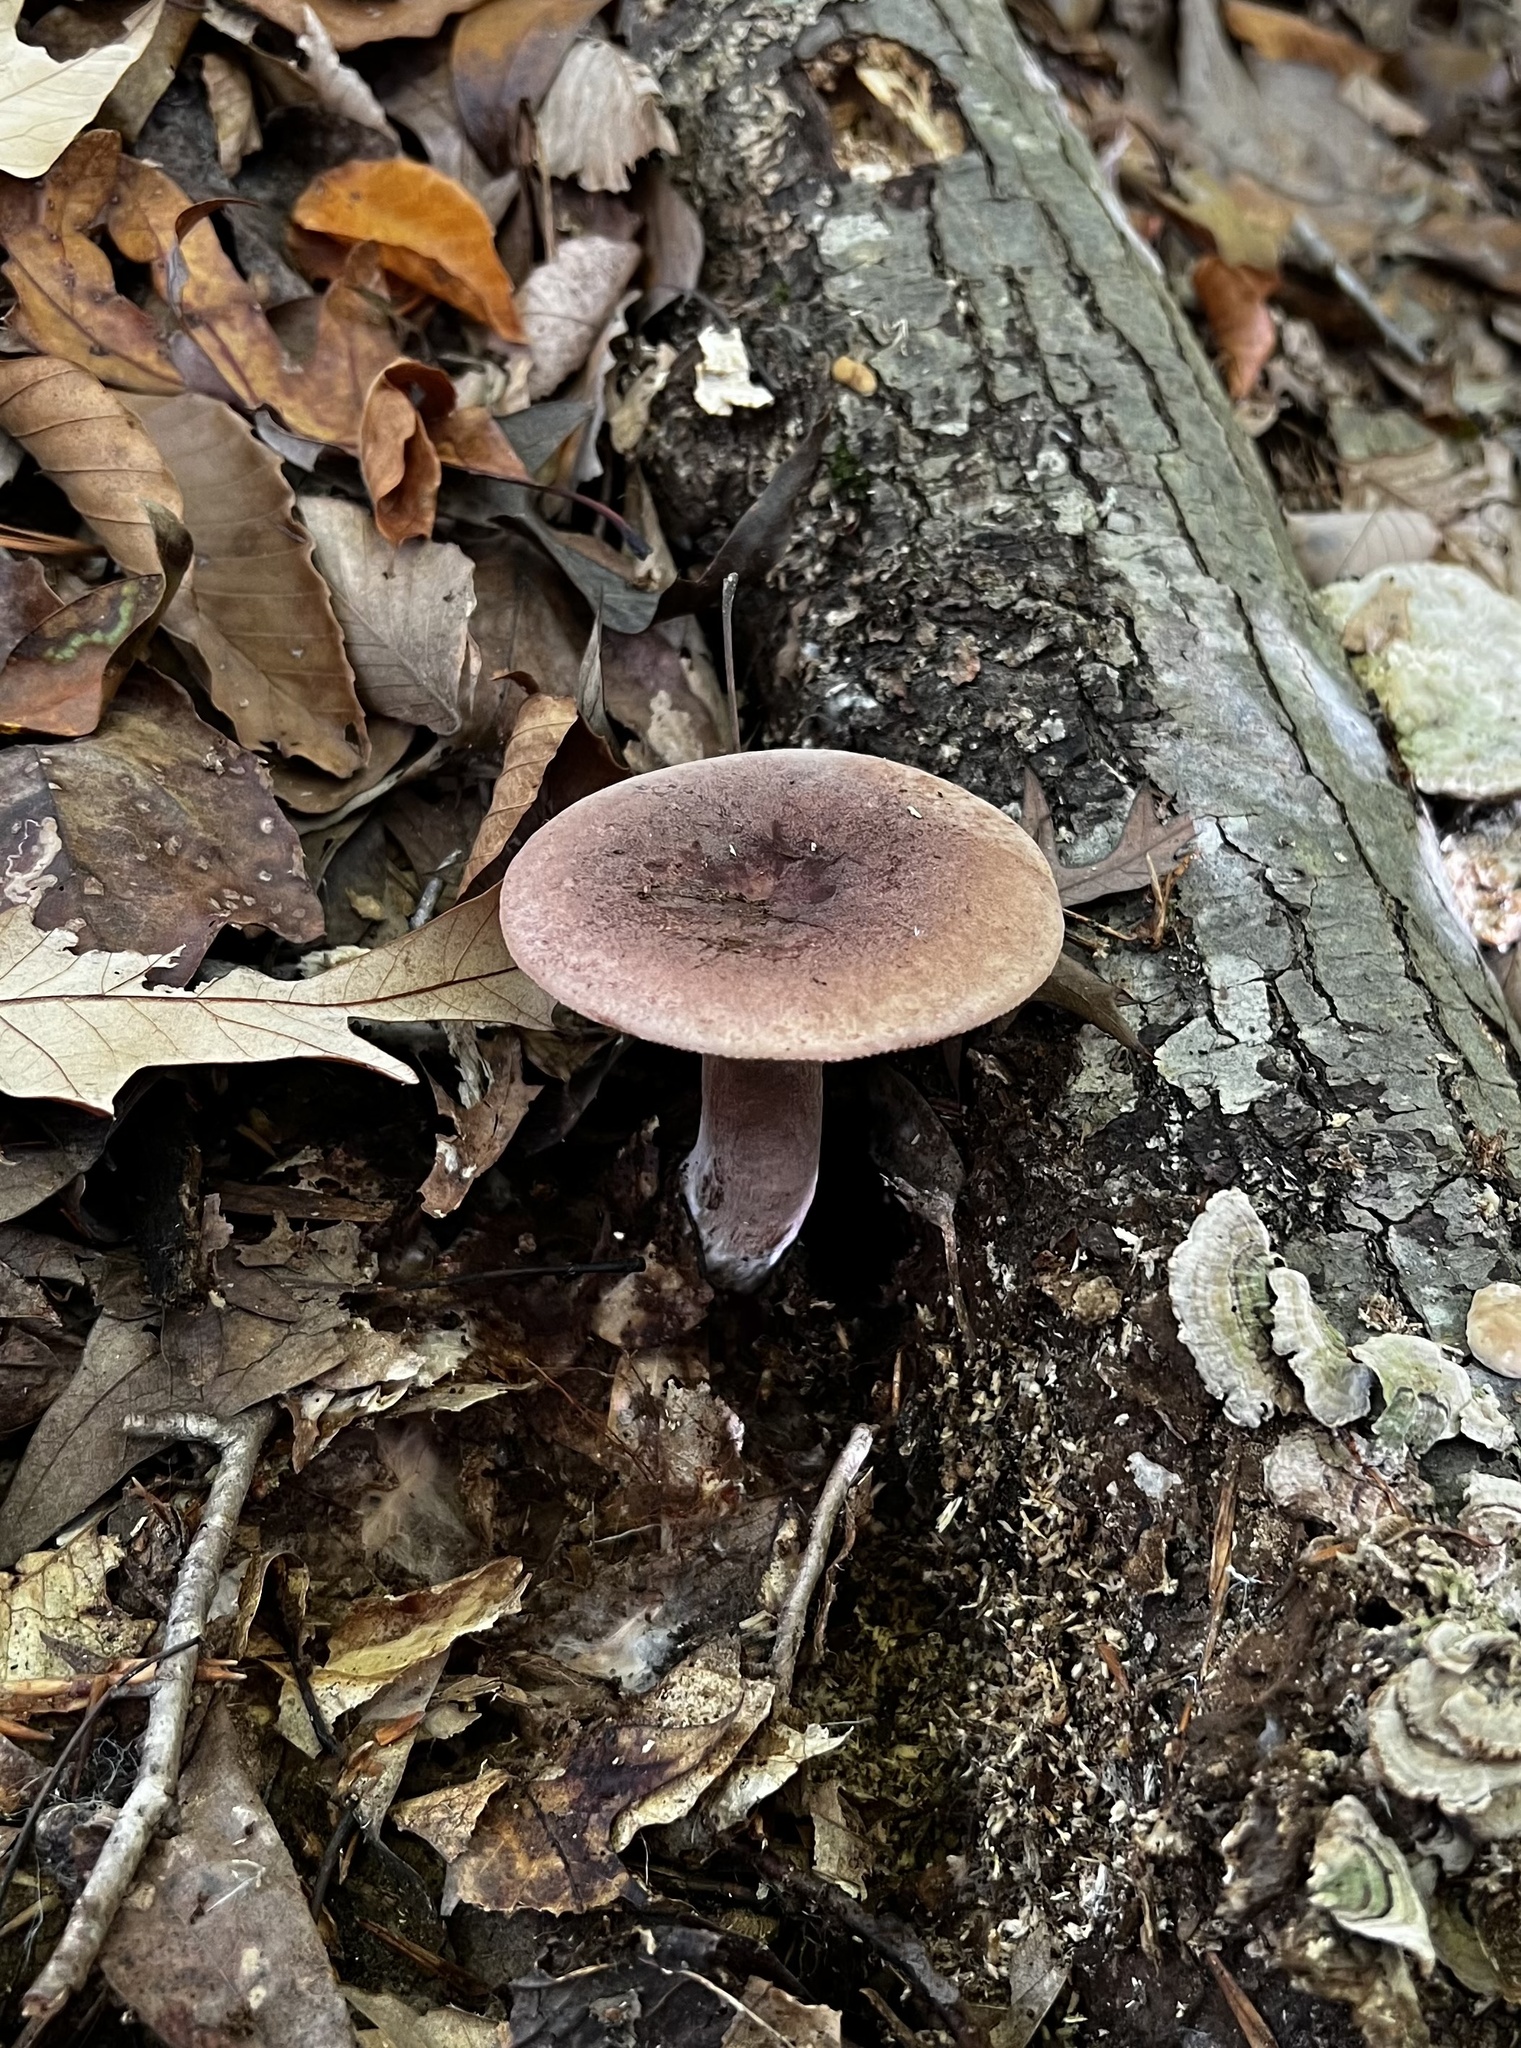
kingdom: Fungi
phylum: Basidiomycota
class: Agaricomycetes
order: Russulales
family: Russulaceae
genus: Lactarius
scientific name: Lactarius corrugis
